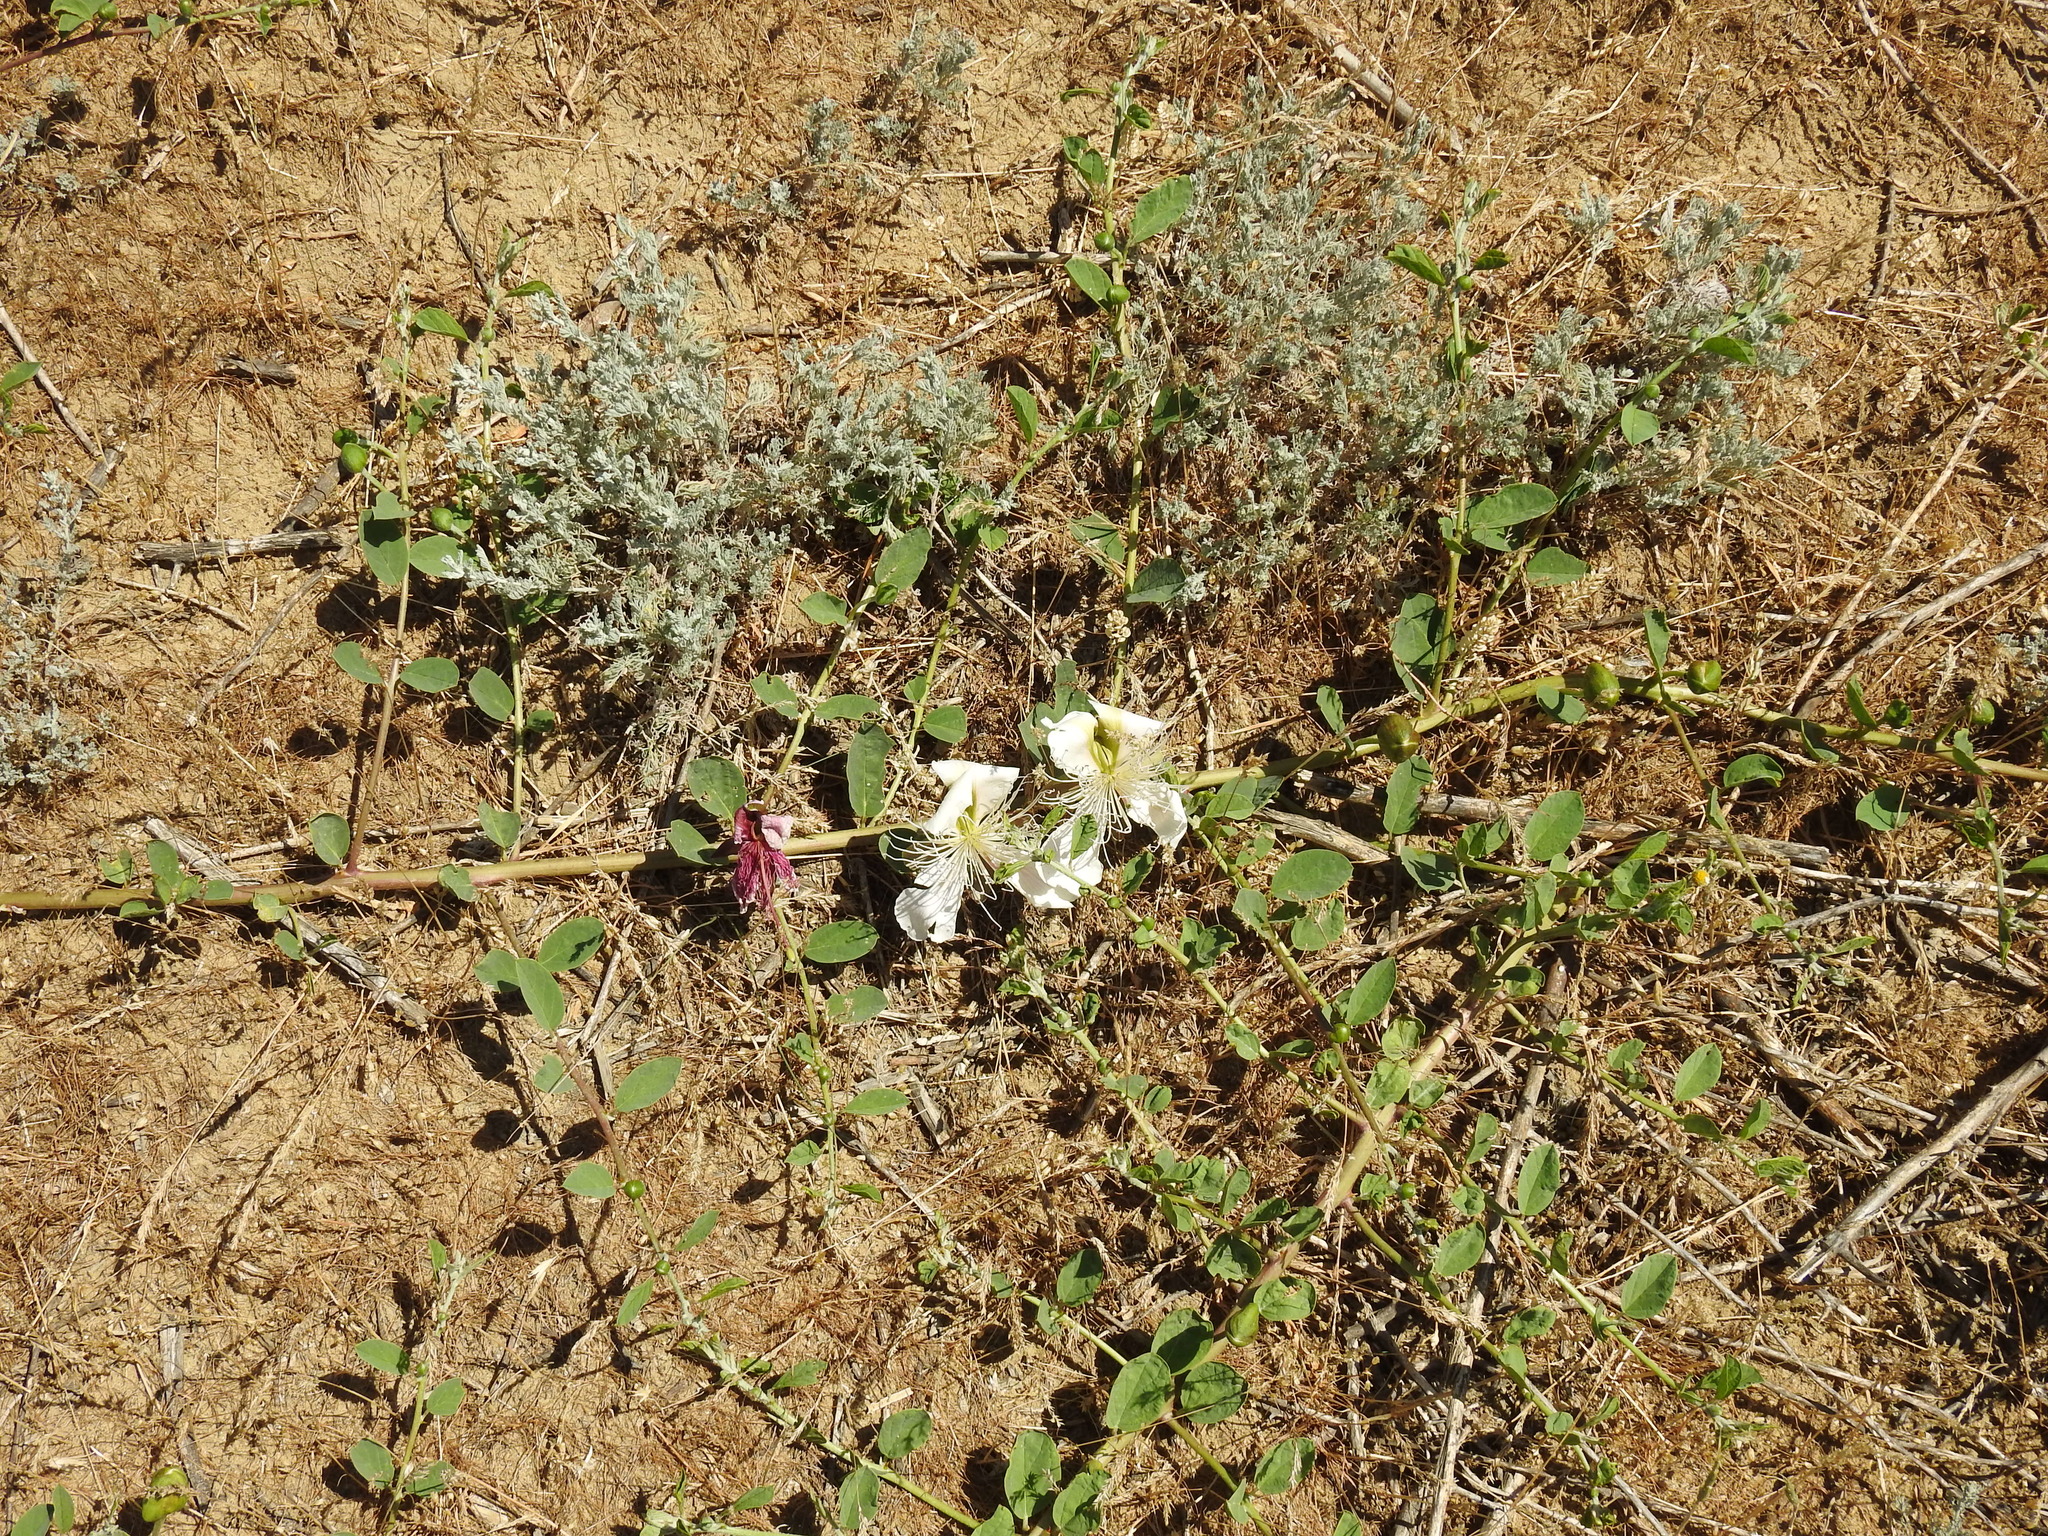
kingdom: Plantae
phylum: Tracheophyta
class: Magnoliopsida
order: Brassicales
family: Capparaceae
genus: Capparis
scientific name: Capparis spinosa
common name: Caper
